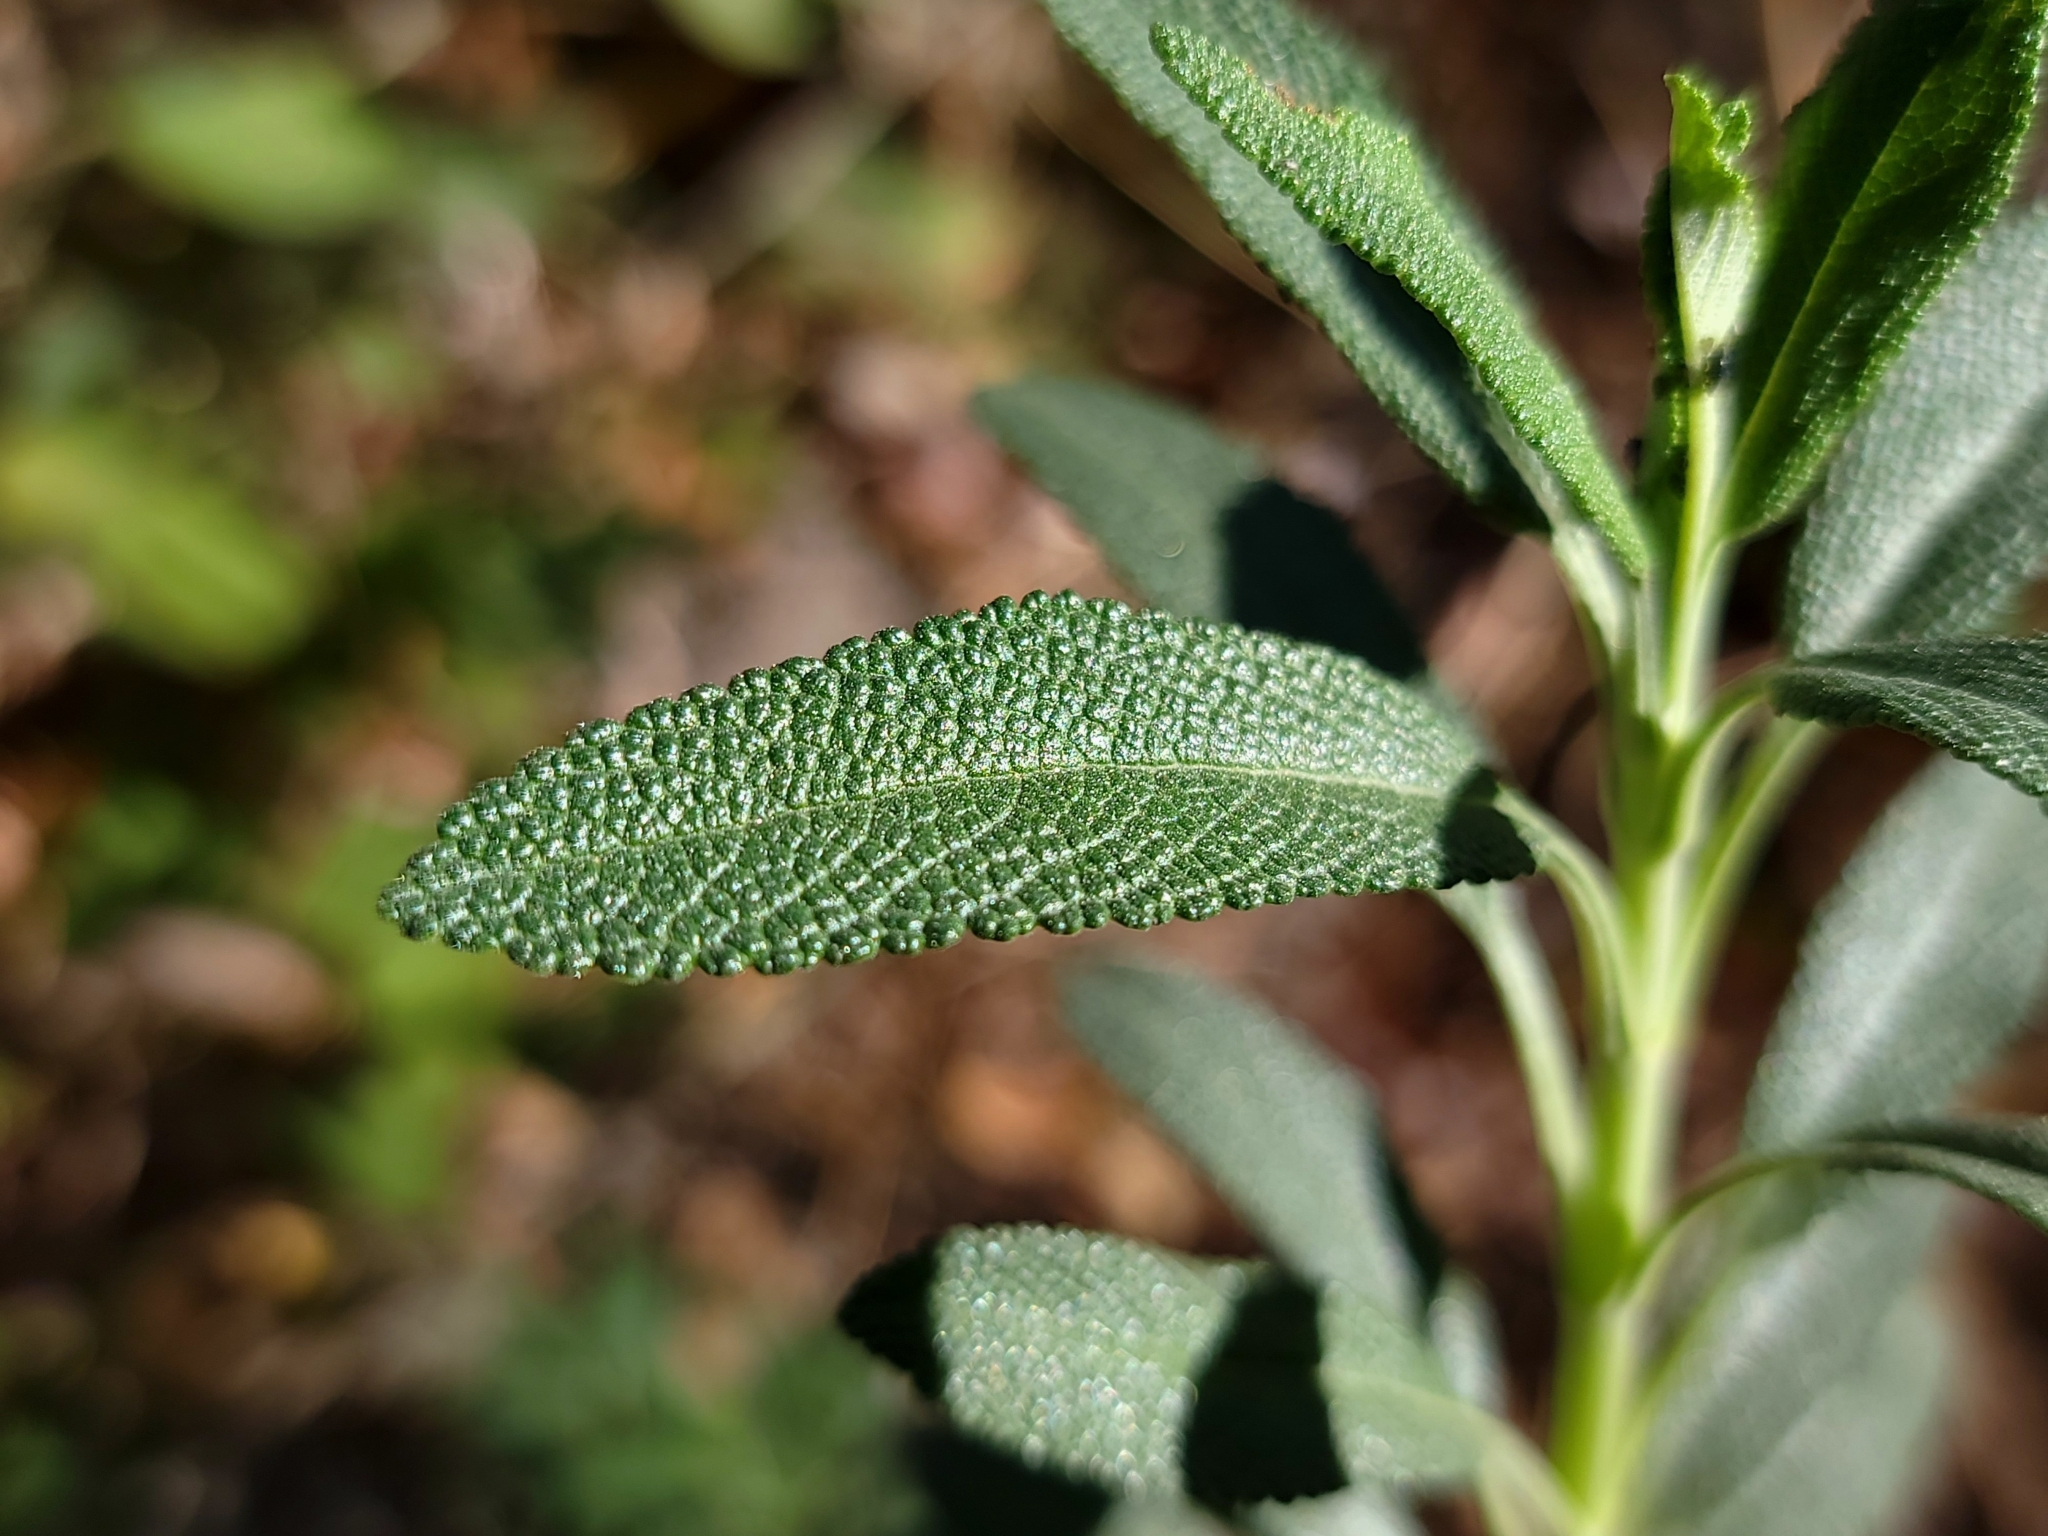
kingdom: Plantae
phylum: Tracheophyta
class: Magnoliopsida
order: Lamiales
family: Lamiaceae
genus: Salvia
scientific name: Salvia mellifera
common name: Black sage
